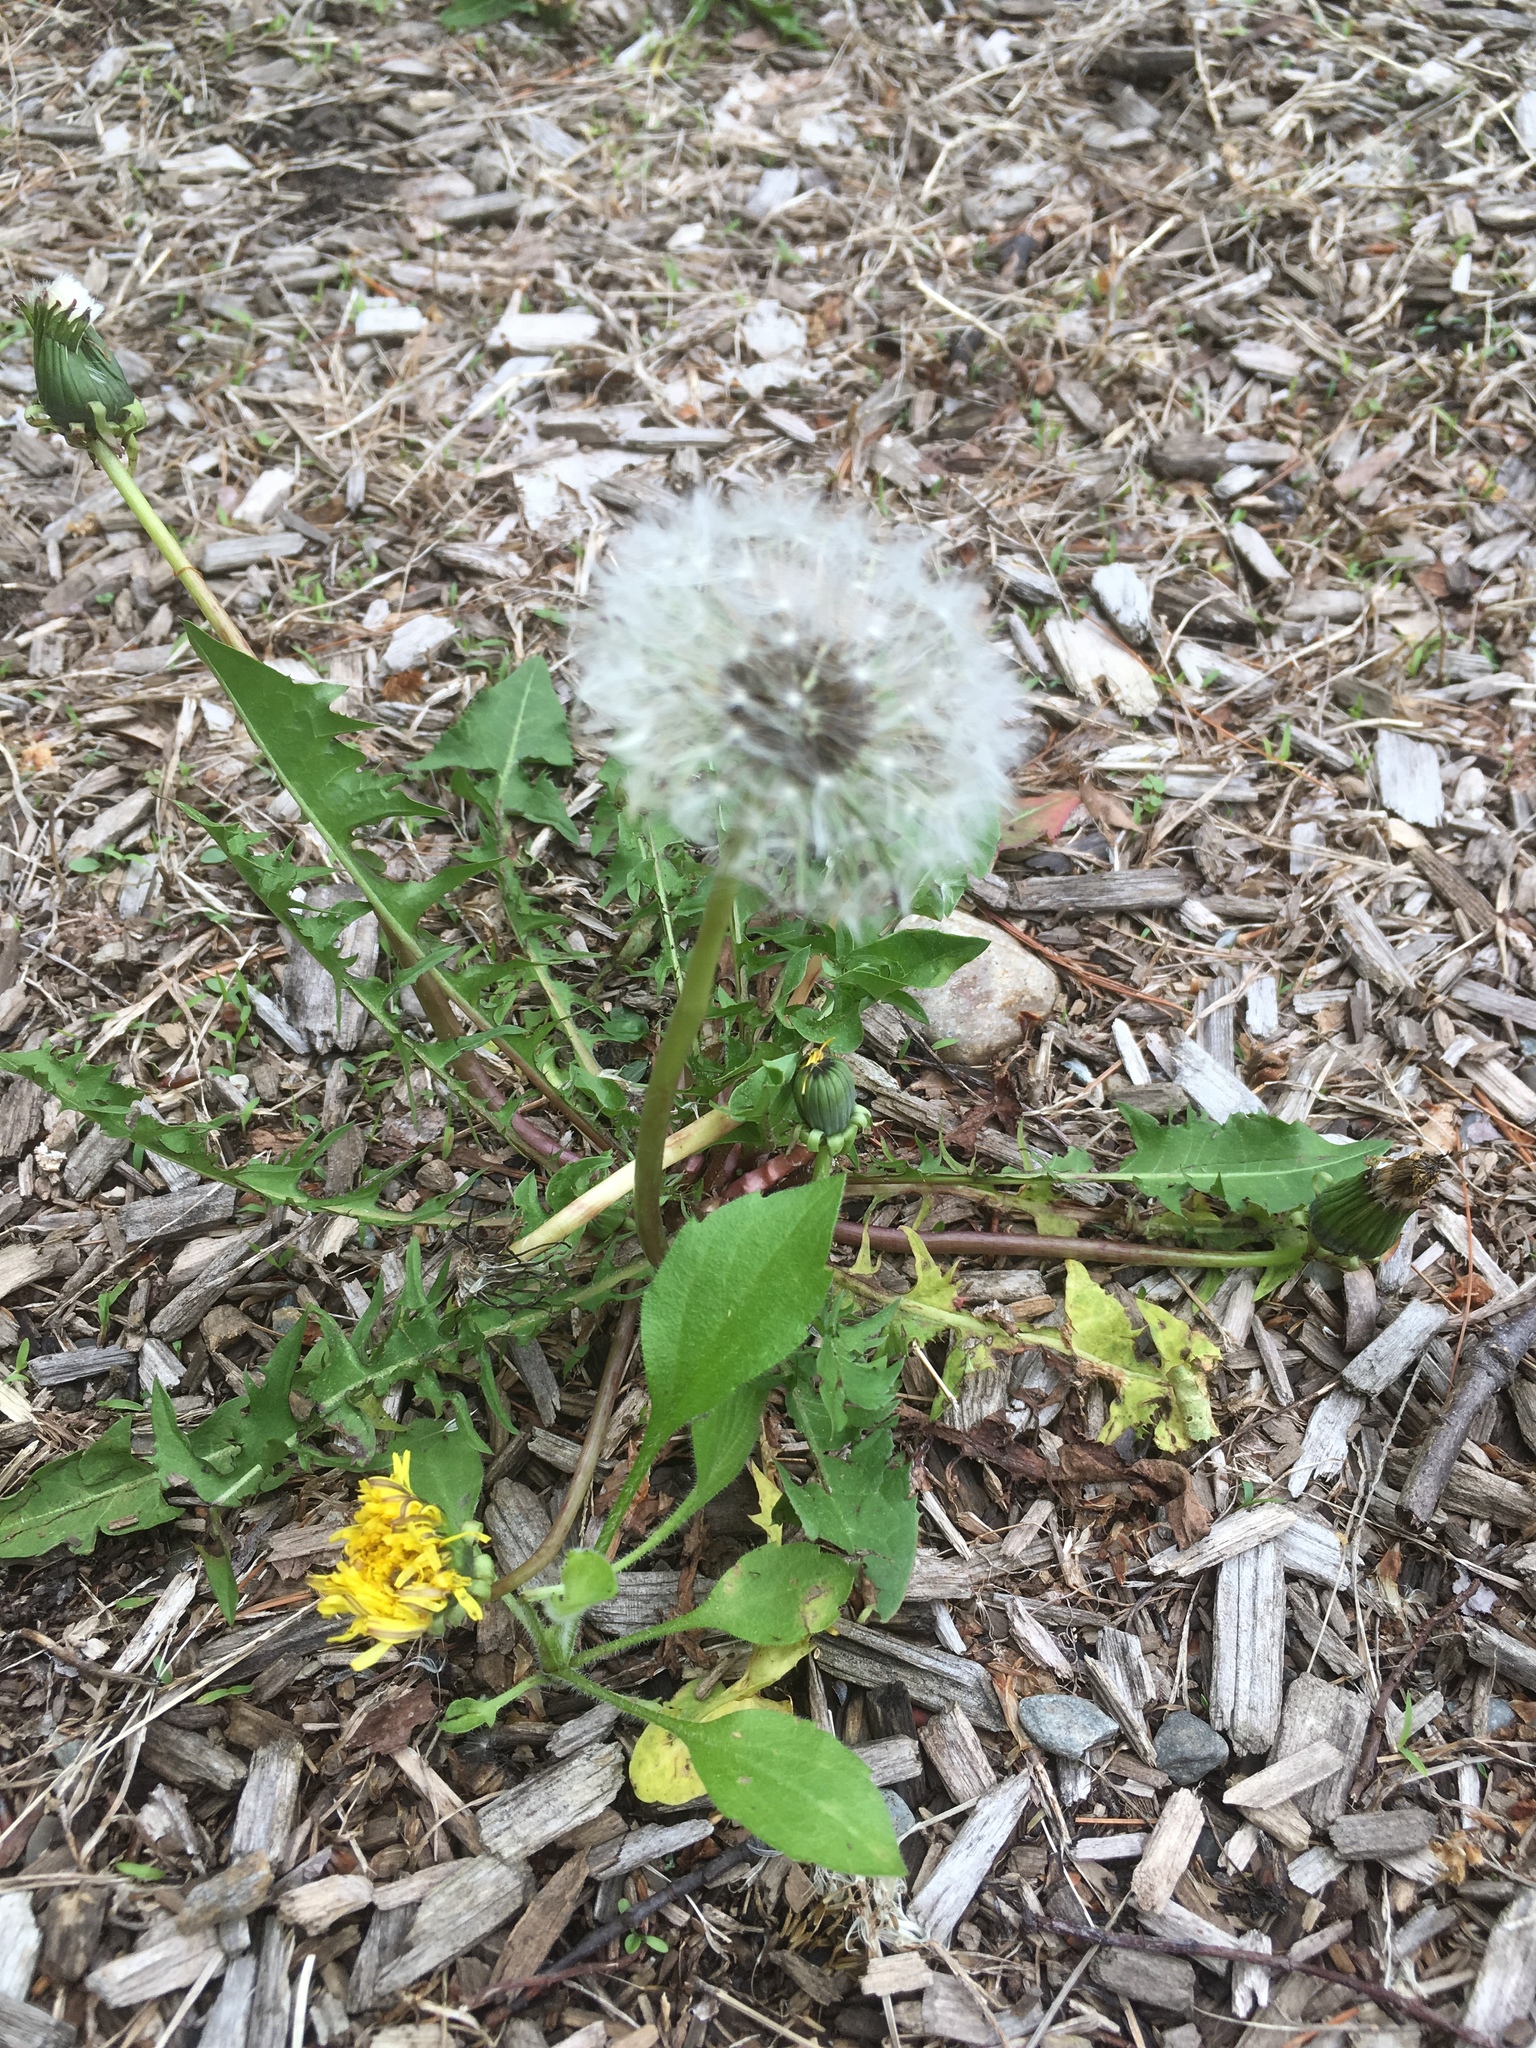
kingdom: Plantae
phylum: Tracheophyta
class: Magnoliopsida
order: Asterales
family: Asteraceae
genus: Taraxacum
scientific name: Taraxacum officinale
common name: Common dandelion
